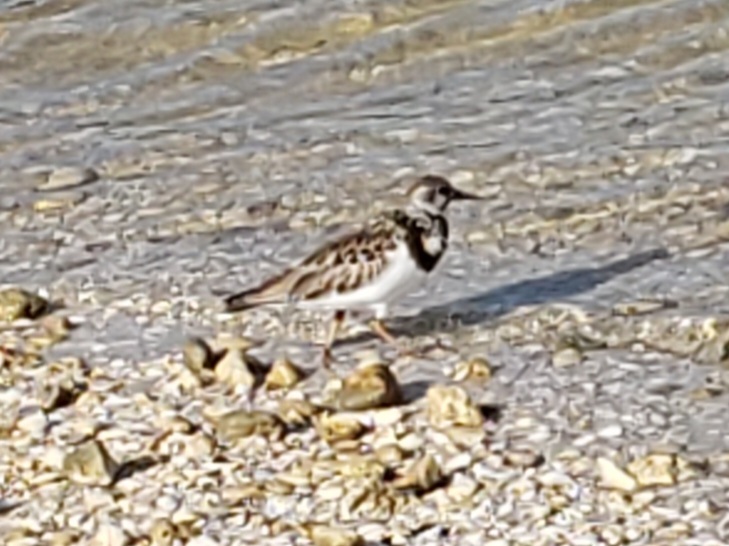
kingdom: Animalia
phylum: Chordata
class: Aves
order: Charadriiformes
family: Scolopacidae
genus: Arenaria
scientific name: Arenaria interpres
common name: Ruddy turnstone
